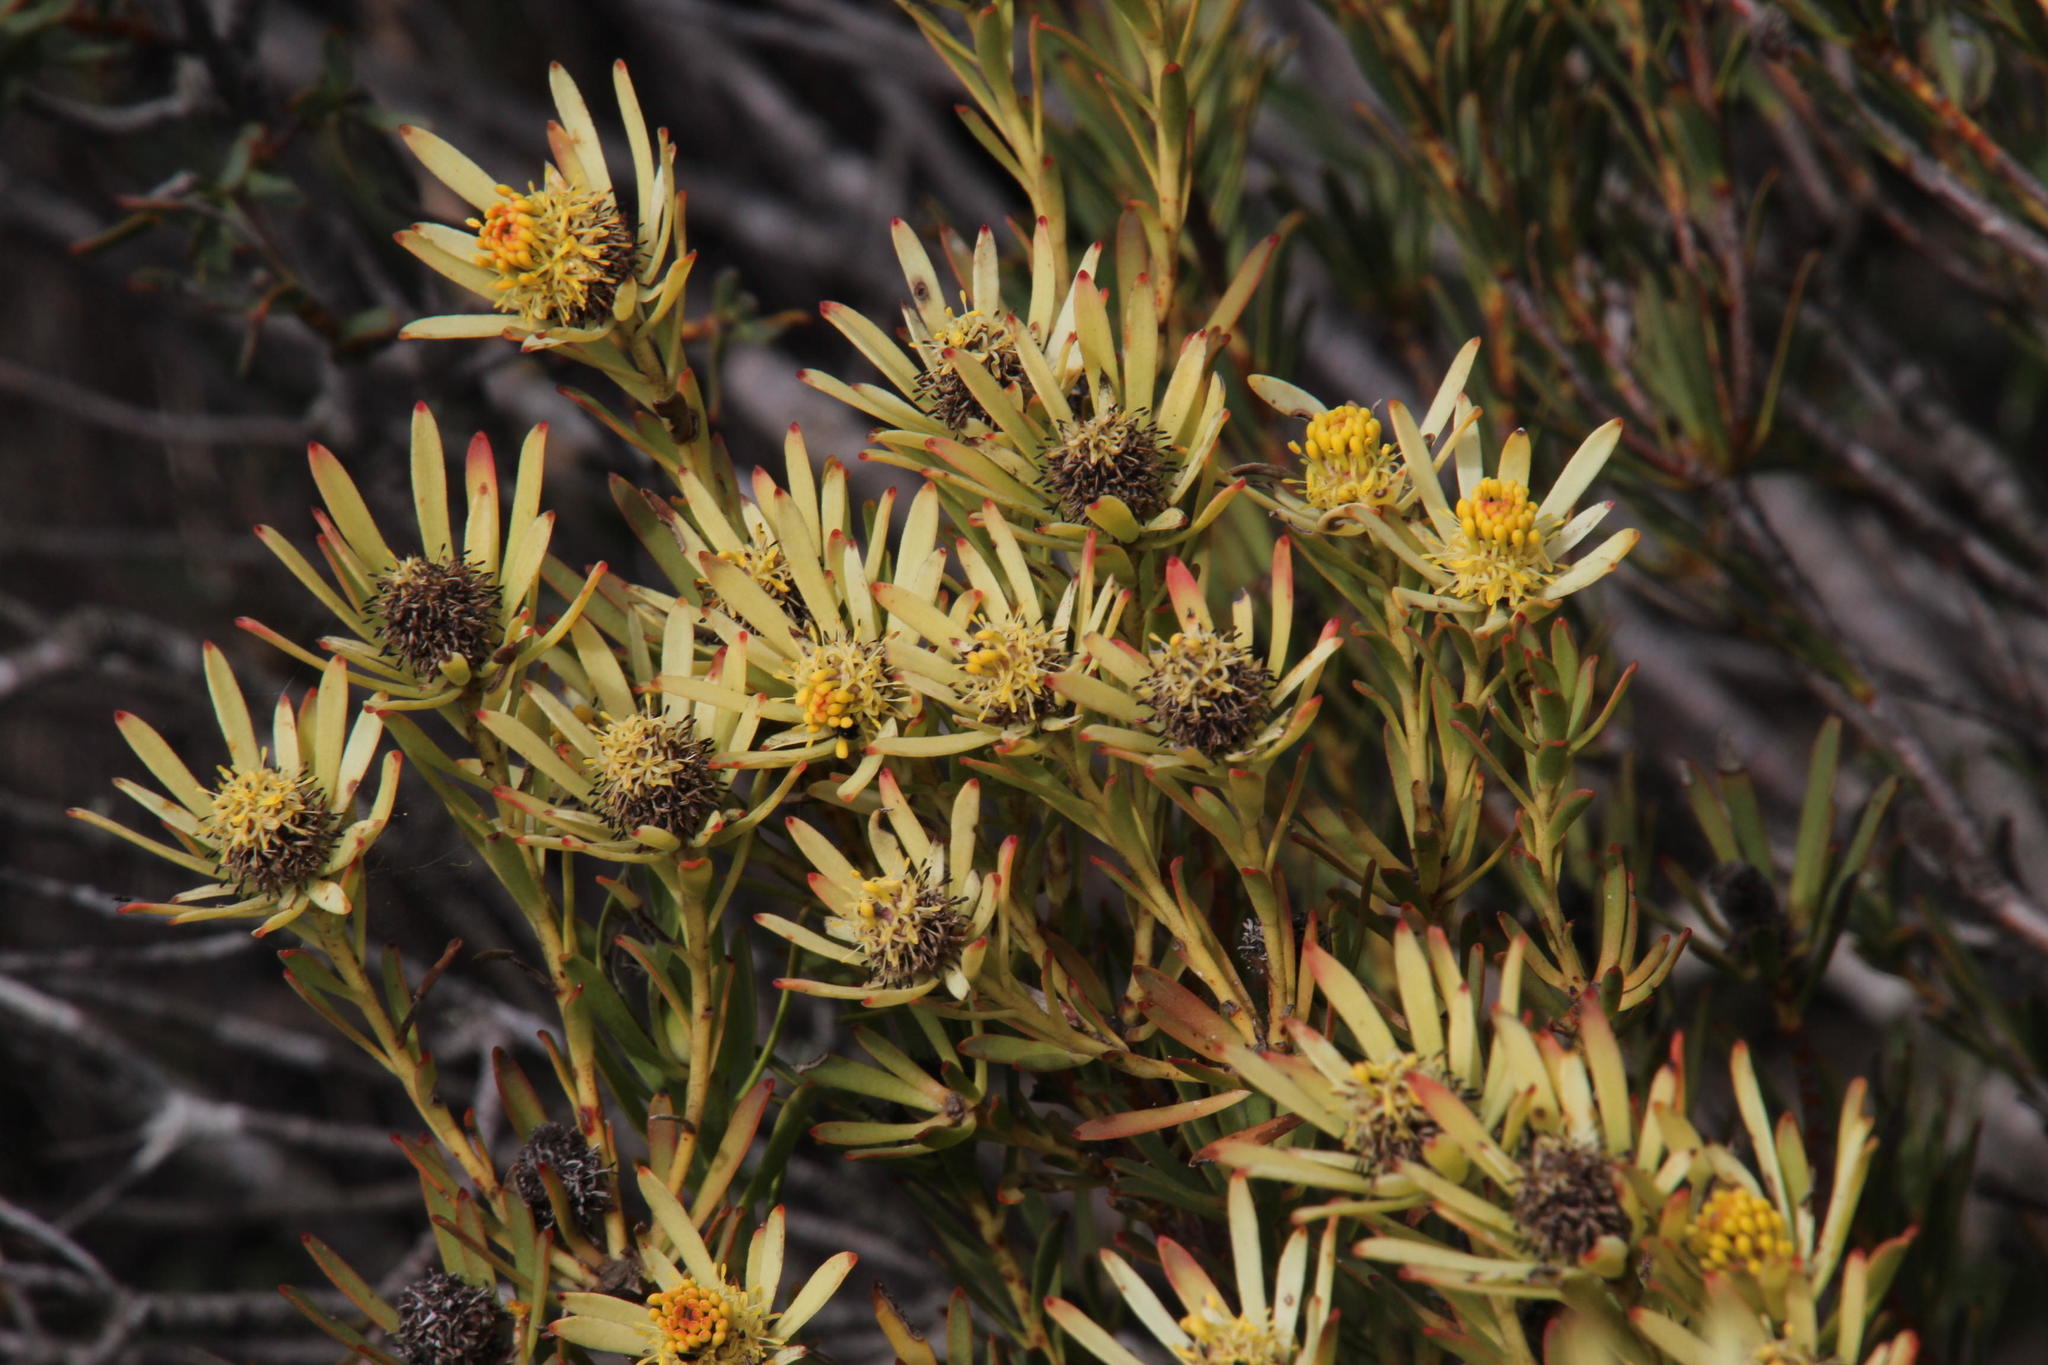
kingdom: Plantae
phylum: Tracheophyta
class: Magnoliopsida
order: Proteales
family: Proteaceae
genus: Leucadendron
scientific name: Leucadendron lanigerum
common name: Shale conebush
